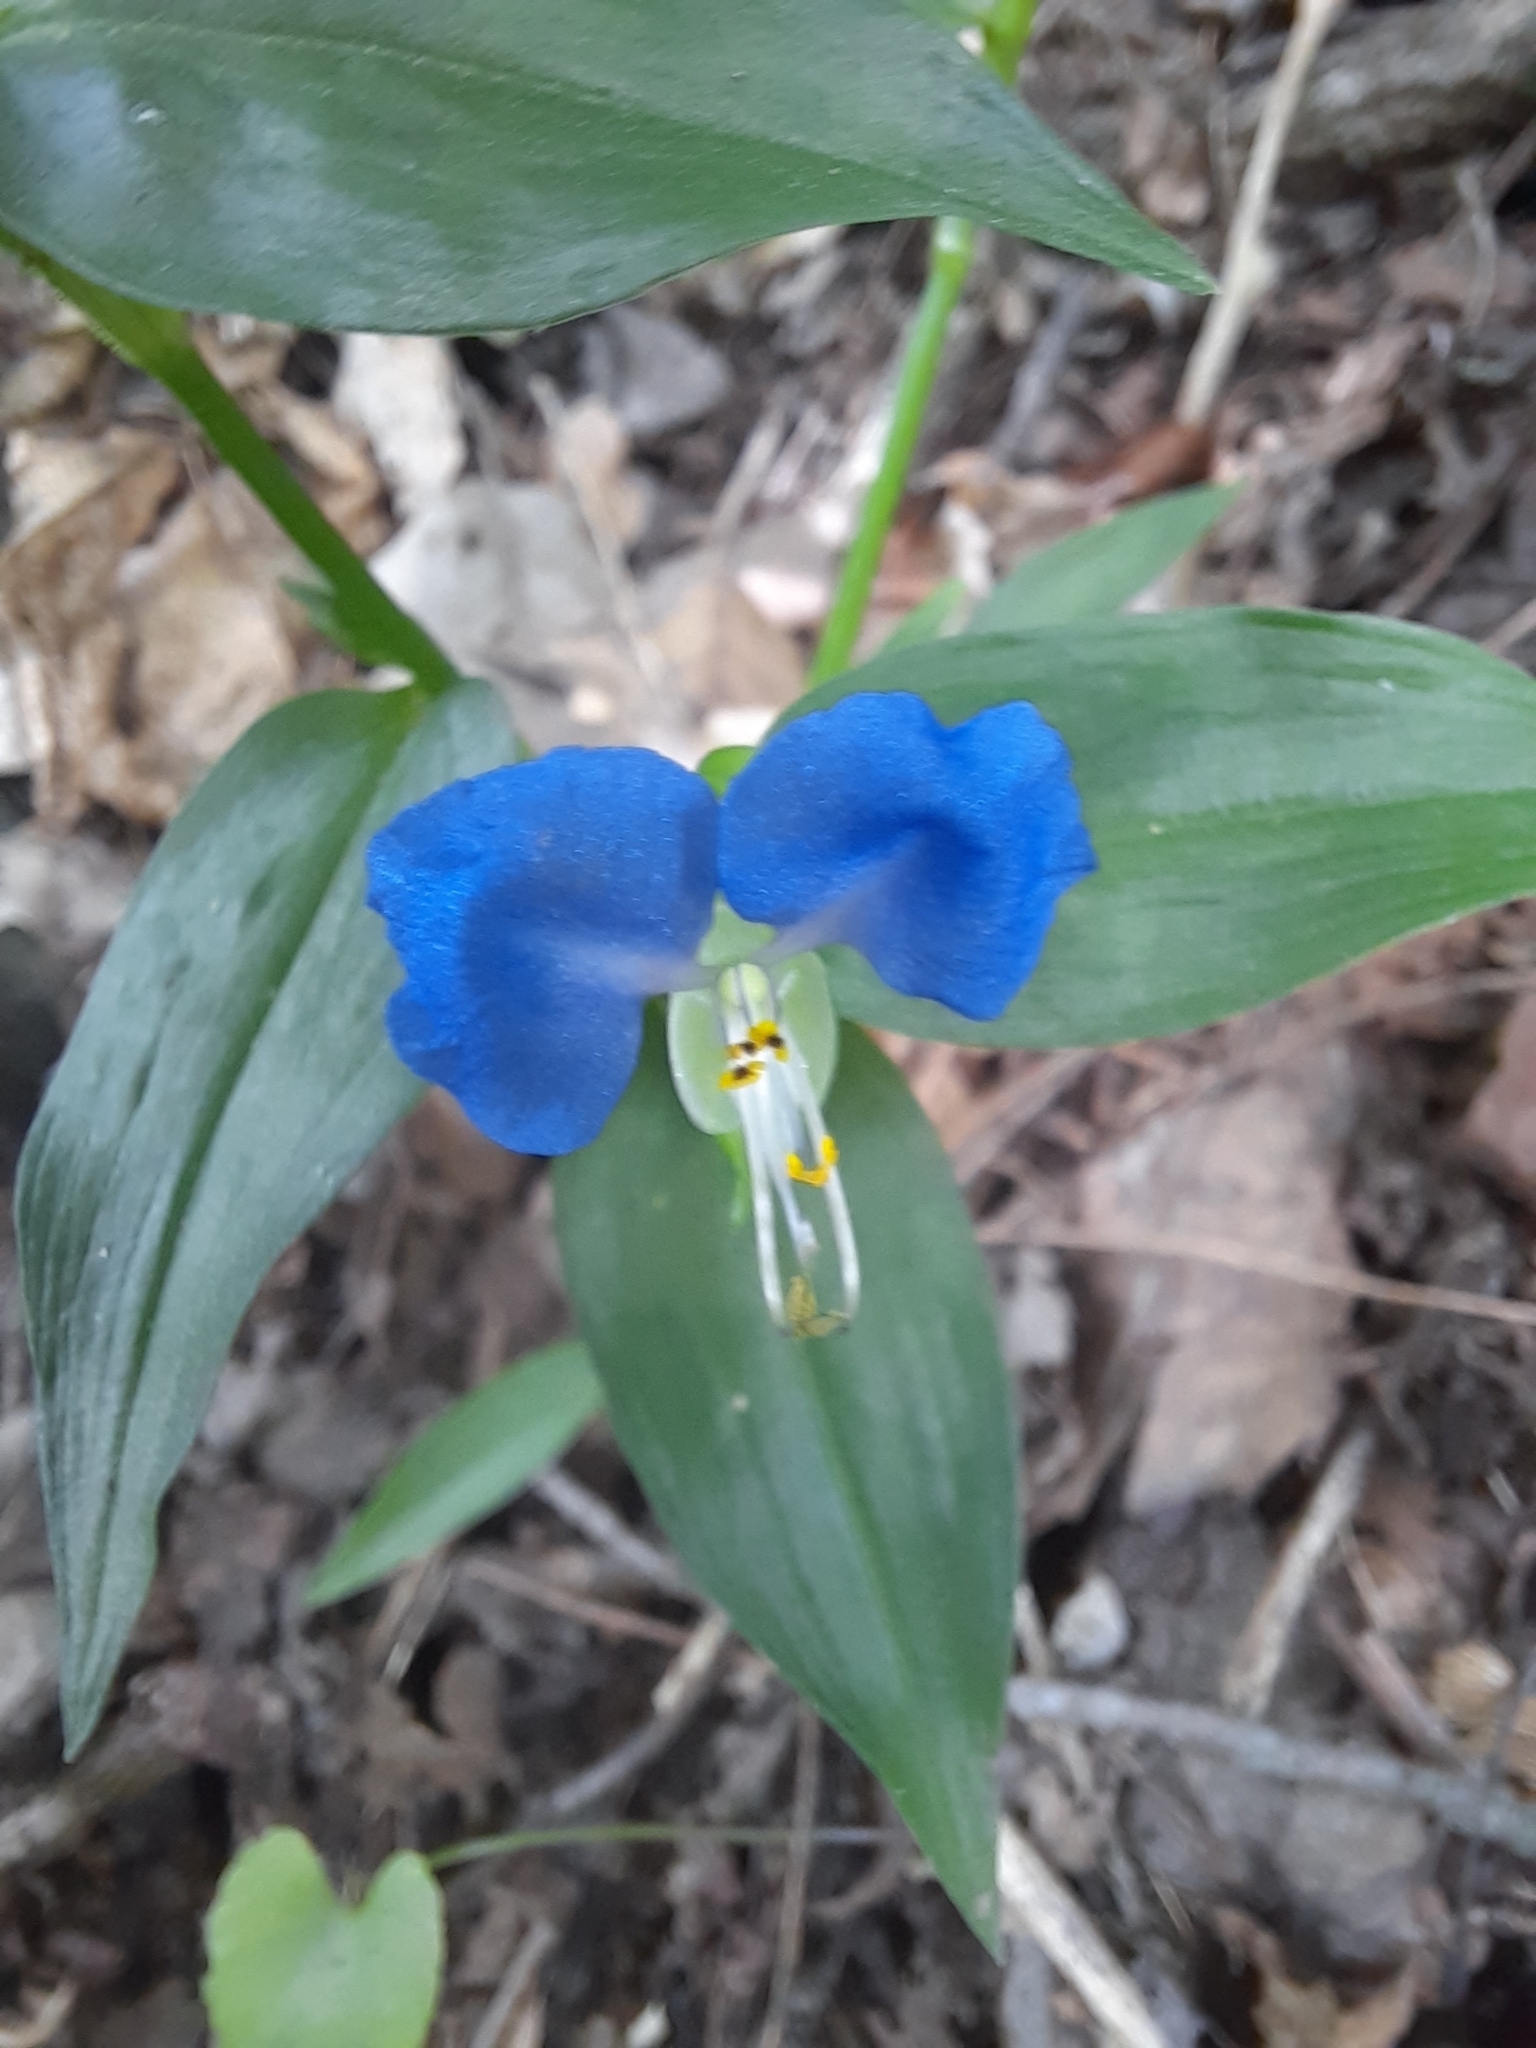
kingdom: Plantae
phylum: Tracheophyta
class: Liliopsida
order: Commelinales
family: Commelinaceae
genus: Commelina
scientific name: Commelina communis
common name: Asiatic dayflower
